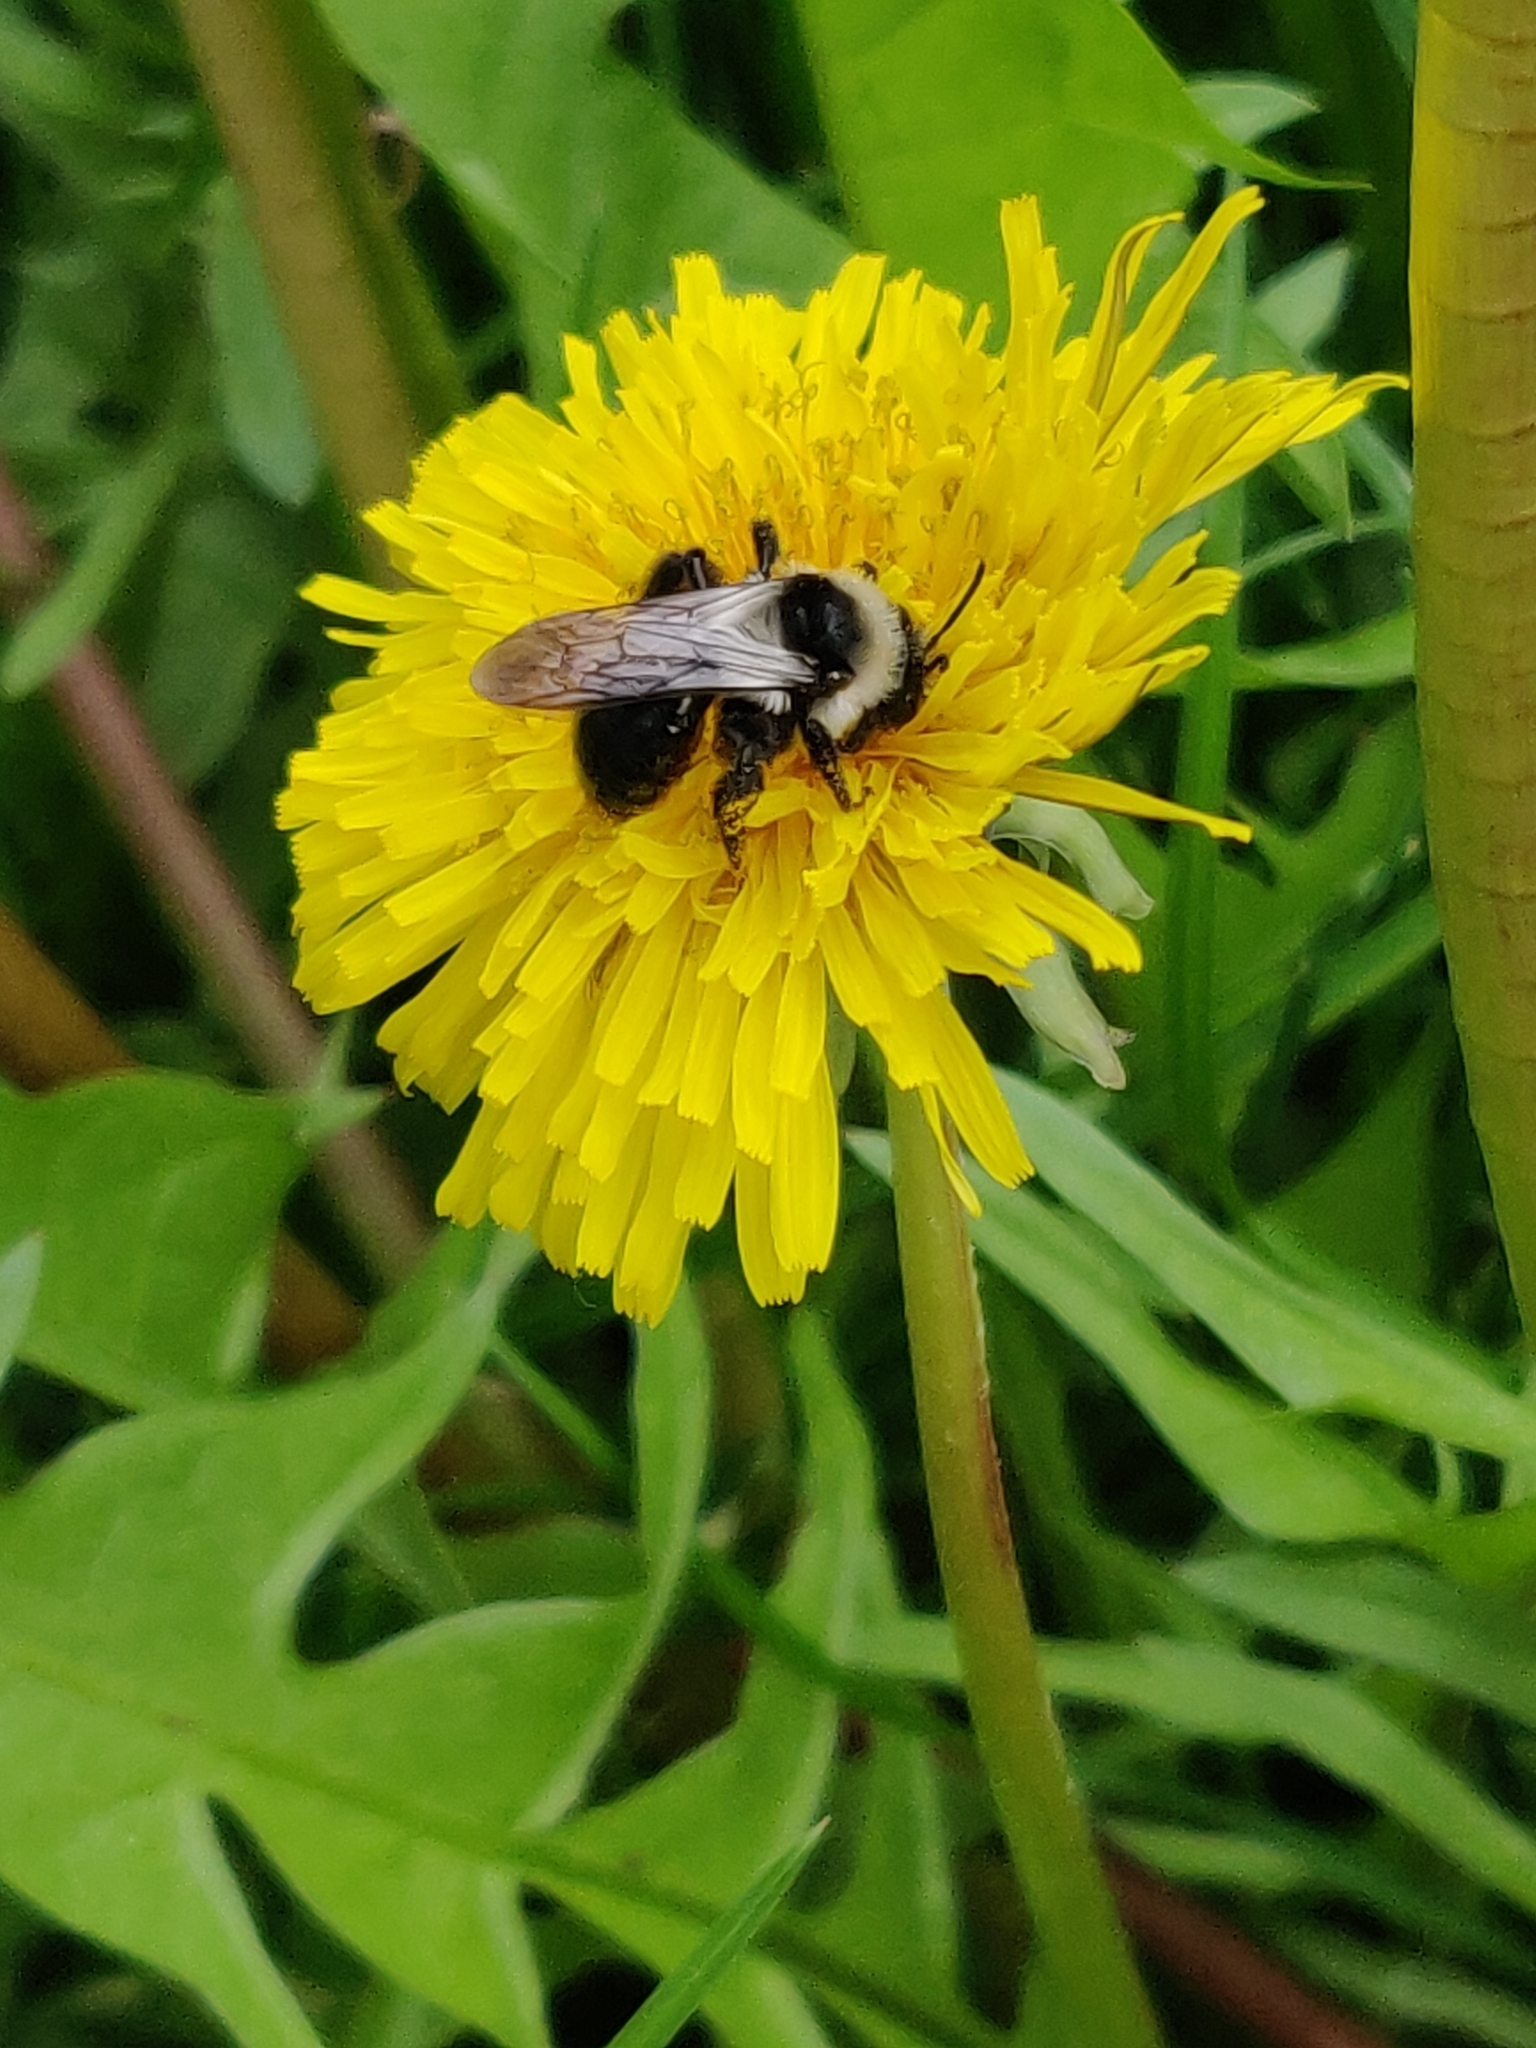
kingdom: Animalia
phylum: Arthropoda
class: Insecta
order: Hymenoptera
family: Andrenidae
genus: Andrena
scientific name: Andrena cineraria
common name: Ashy mining bee
